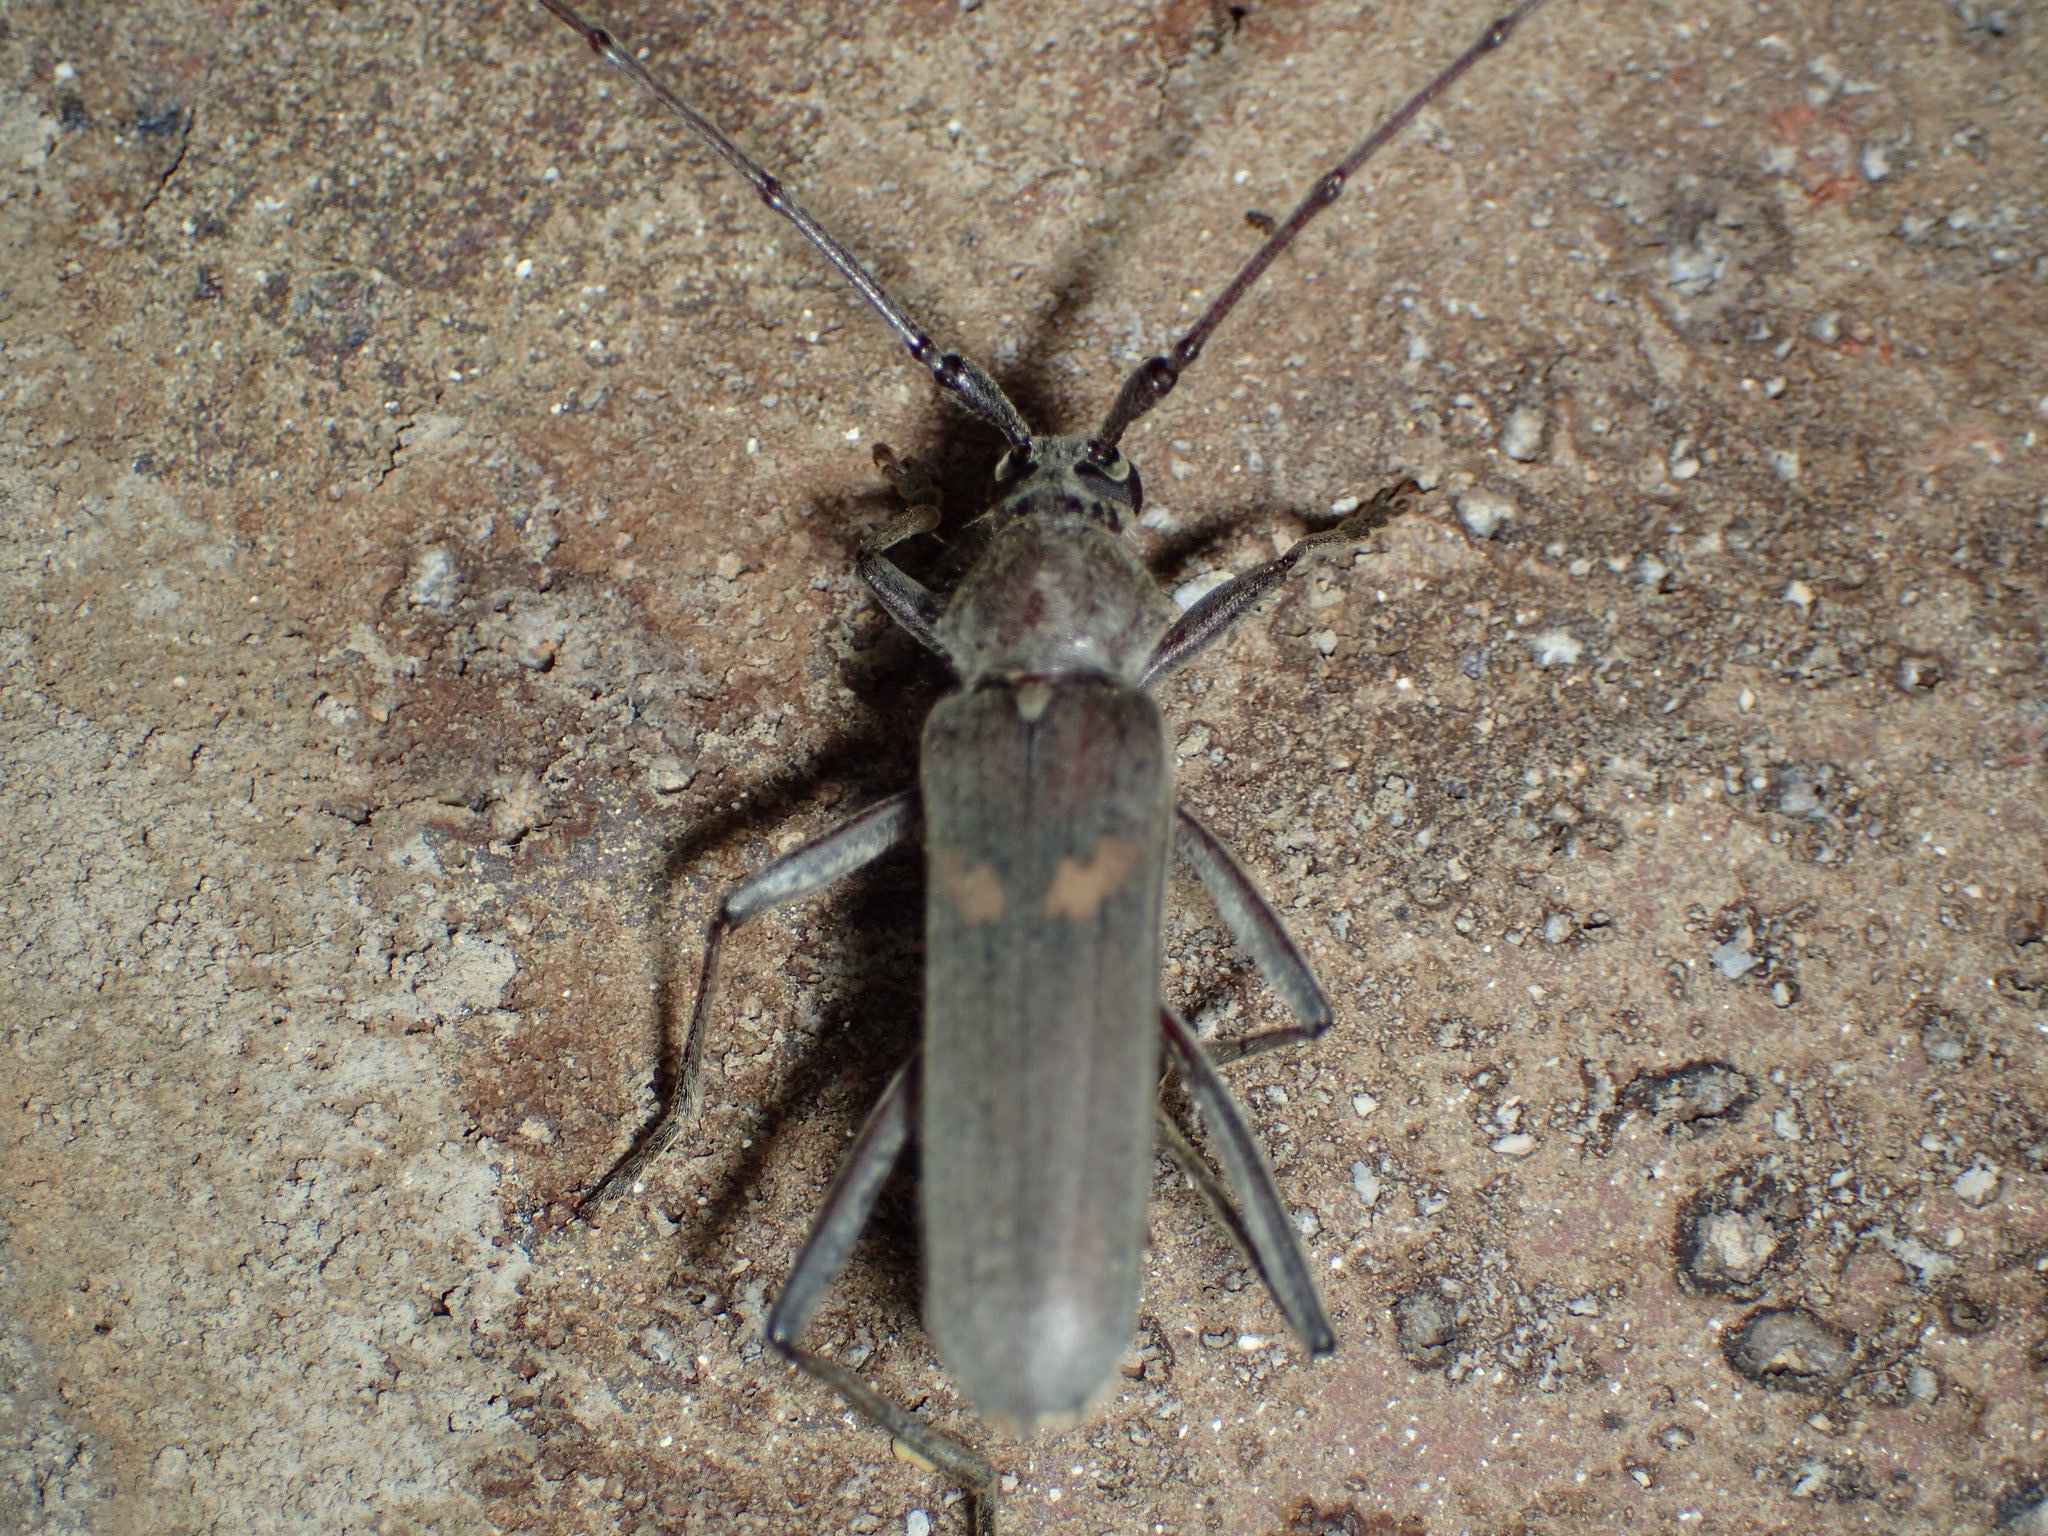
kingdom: Animalia
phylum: Arthropoda
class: Insecta
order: Coleoptera
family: Cerambycidae
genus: Knulliana
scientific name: Knulliana cincta
